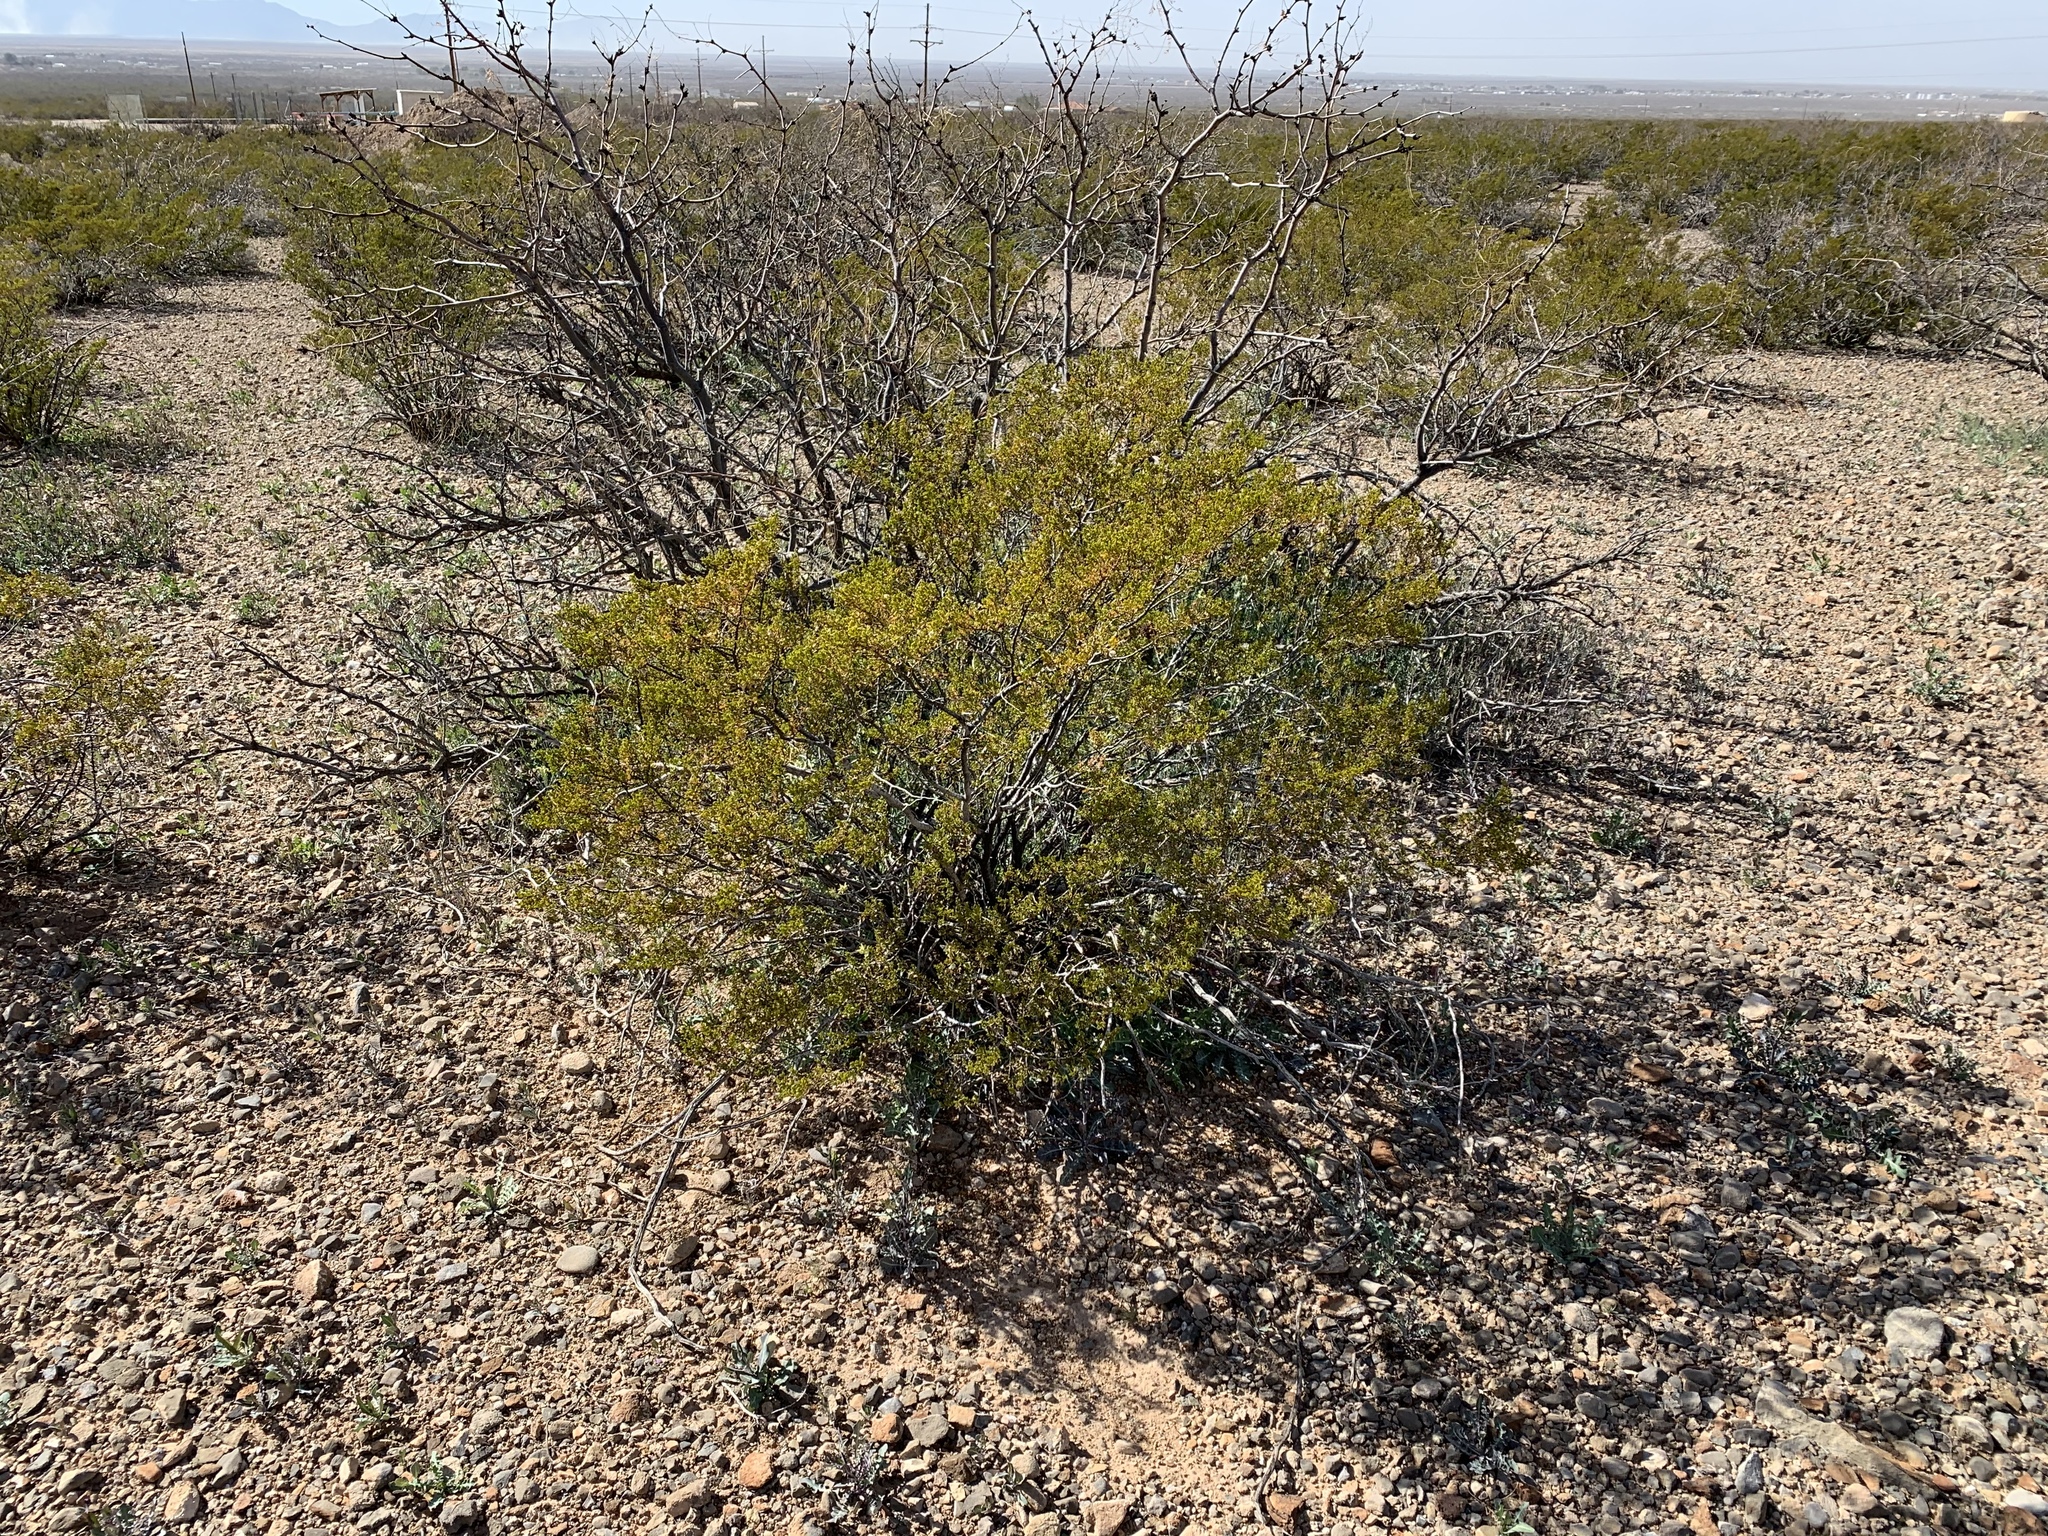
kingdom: Plantae
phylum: Tracheophyta
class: Magnoliopsida
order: Zygophyllales
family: Zygophyllaceae
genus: Larrea
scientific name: Larrea tridentata
